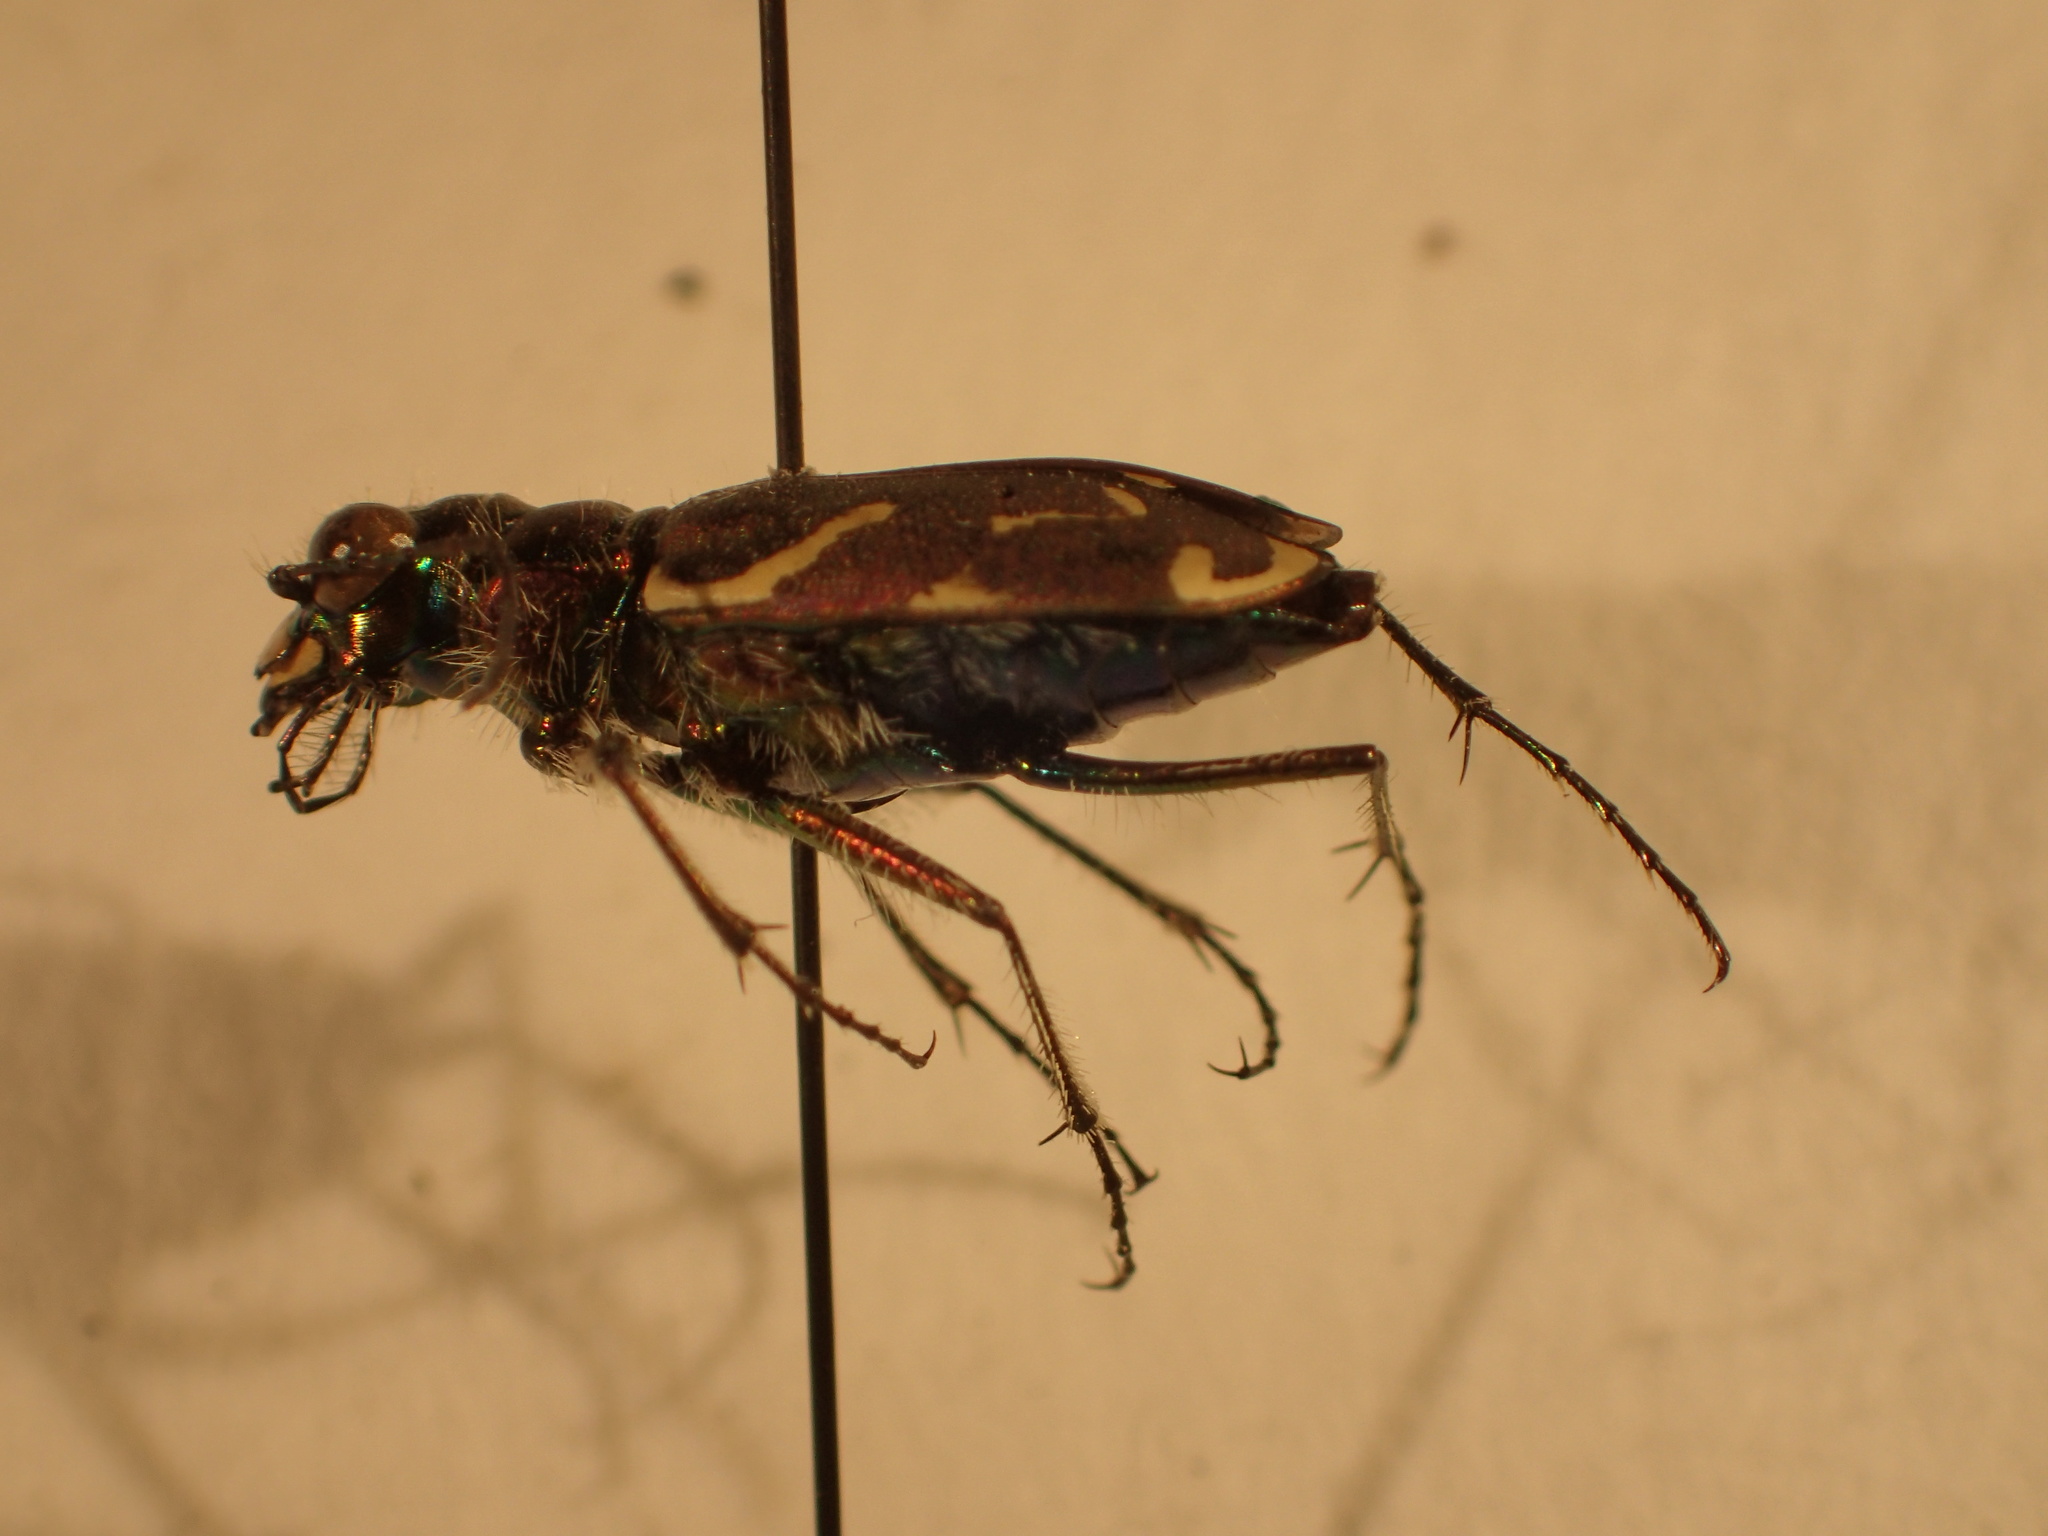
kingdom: Animalia
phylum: Arthropoda
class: Insecta
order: Coleoptera
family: Carabidae
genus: Cicindela
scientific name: Cicindela tranquebarica
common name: Oblique-lined tiger beetle
